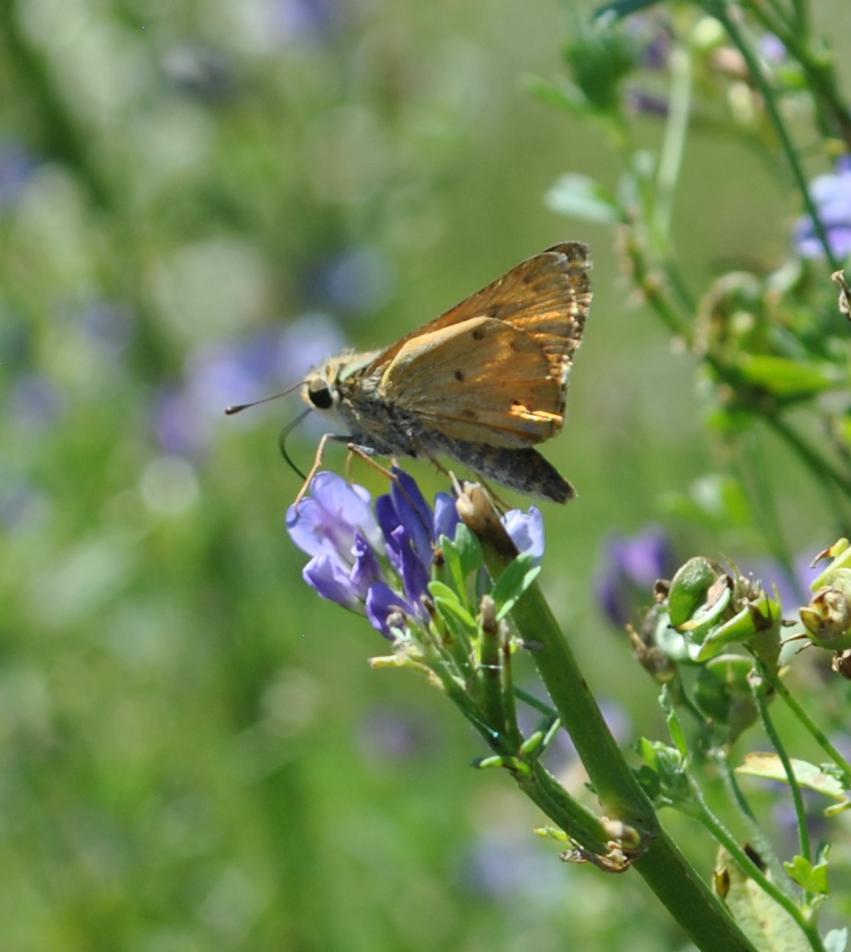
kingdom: Animalia
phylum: Arthropoda
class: Insecta
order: Lepidoptera
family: Hesperiidae
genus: Hylephila
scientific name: Hylephila phyleus
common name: Fiery skipper
